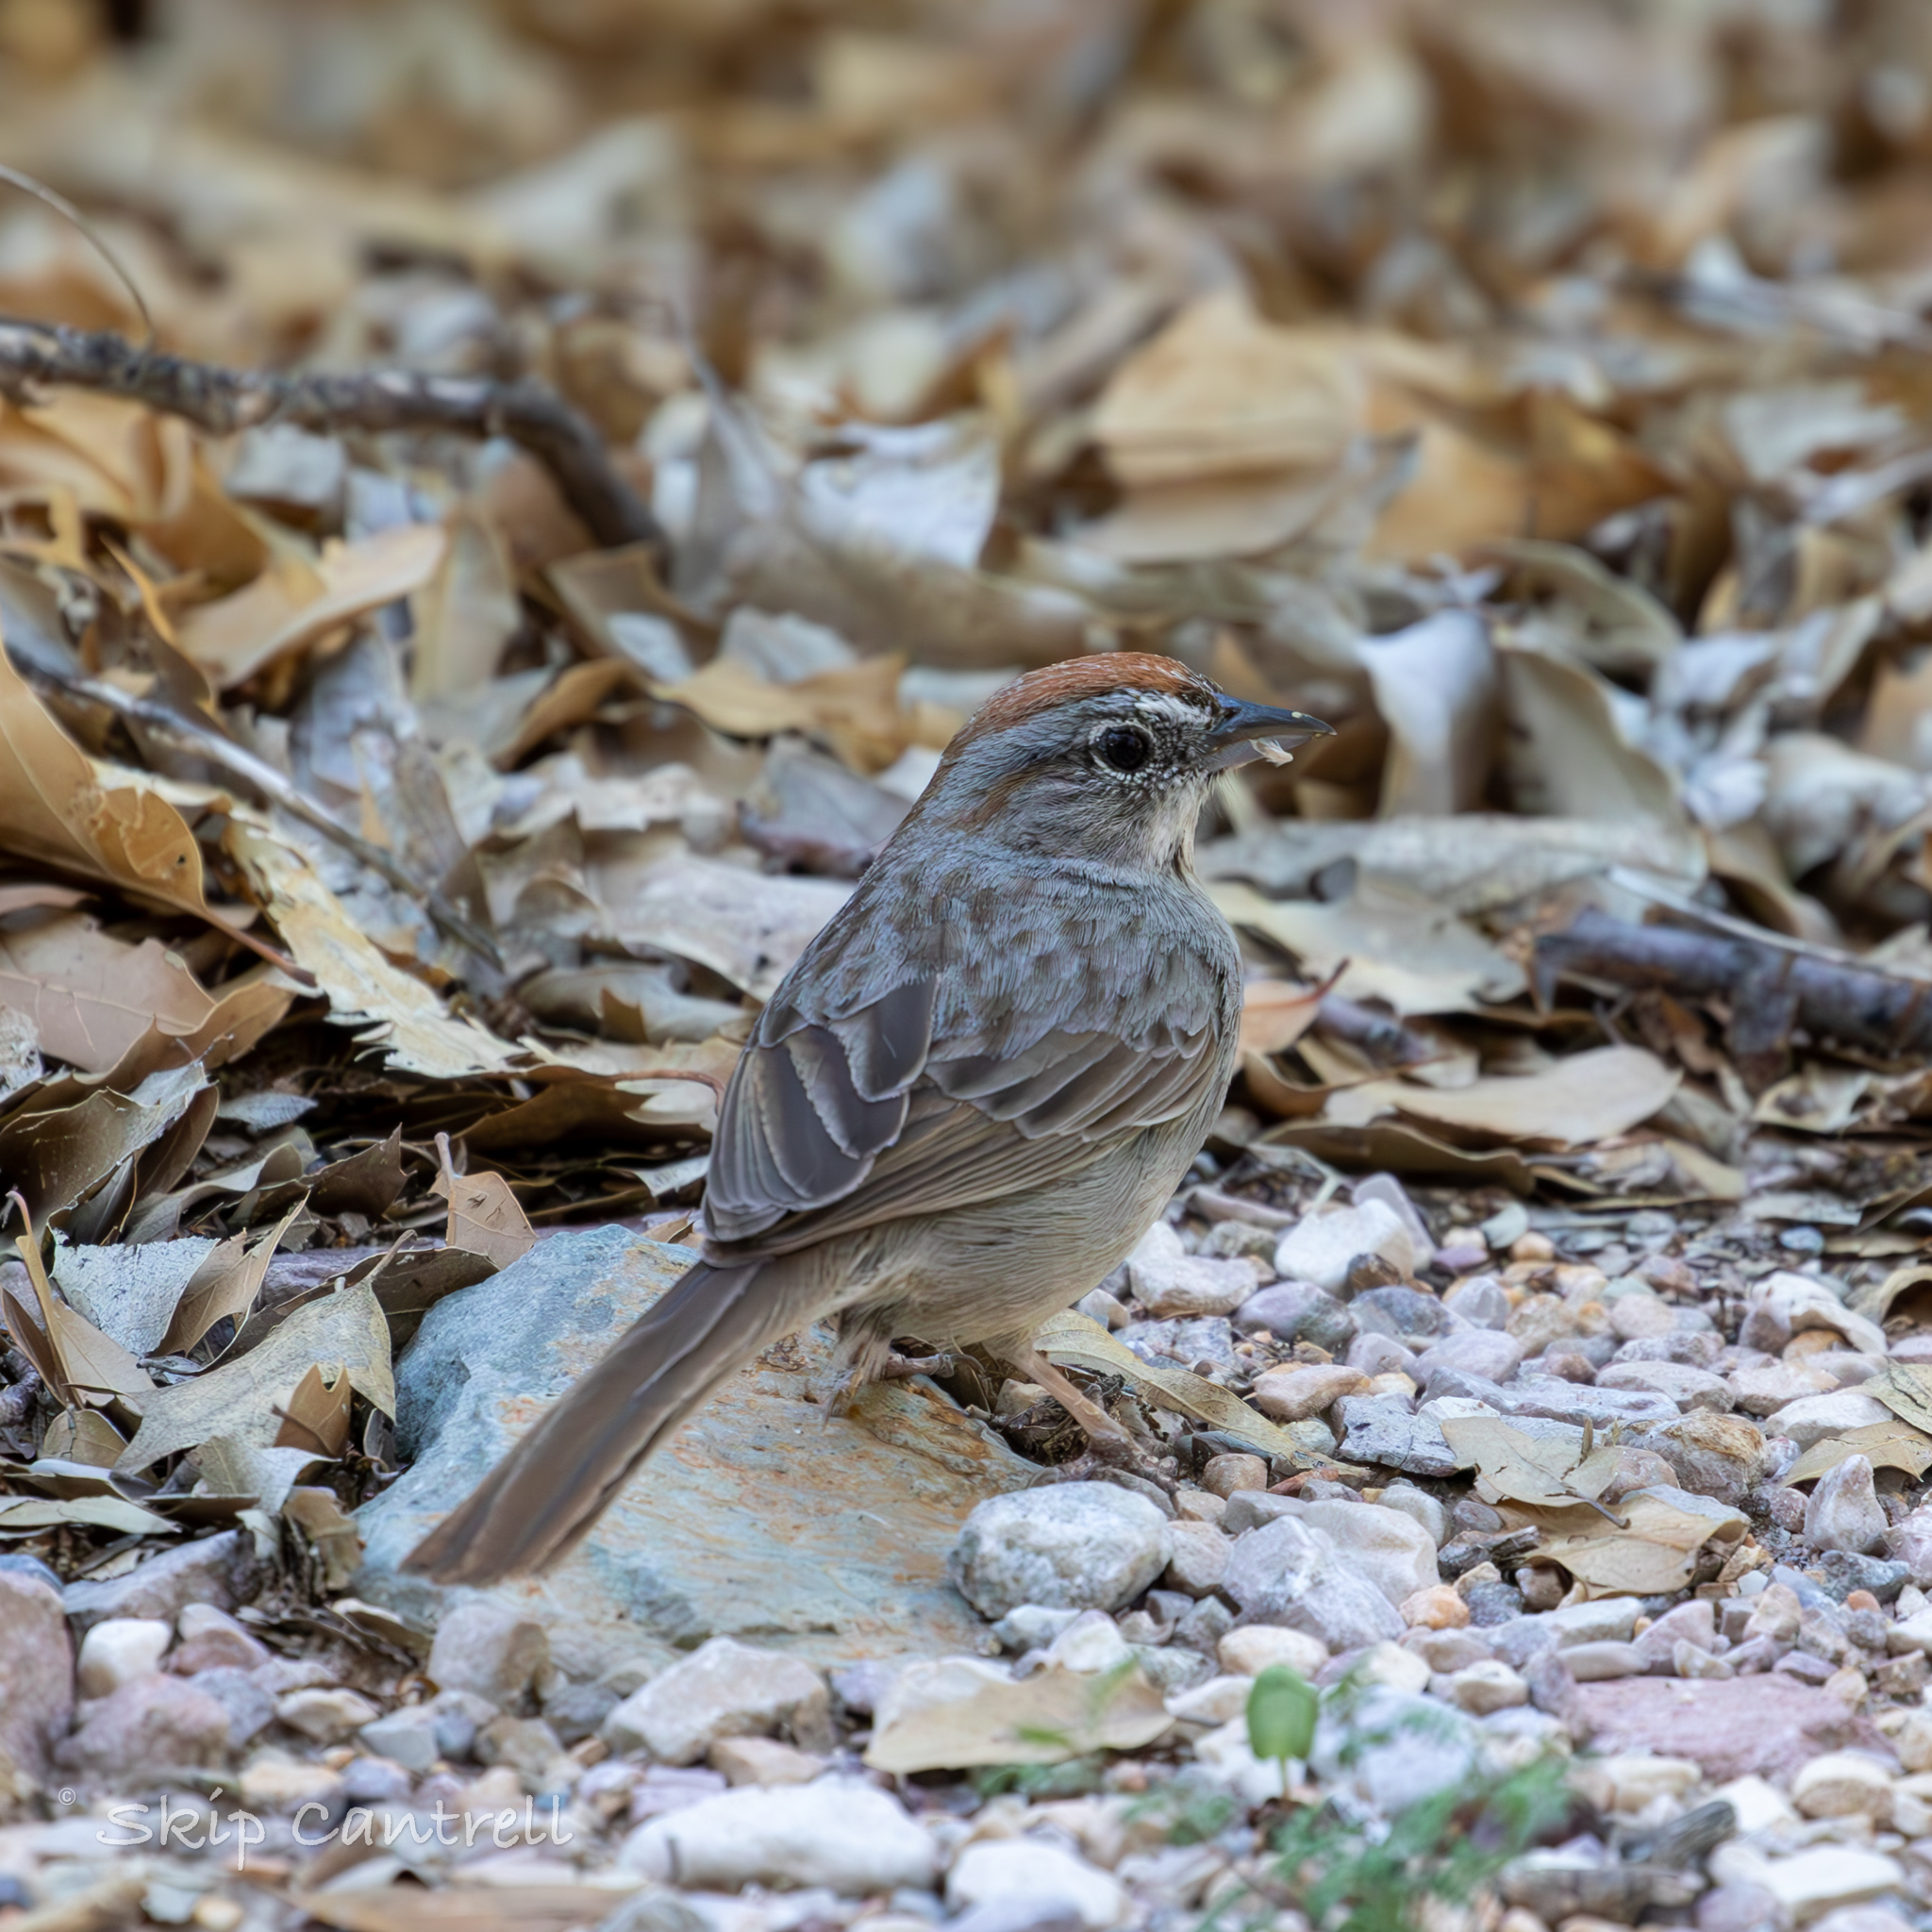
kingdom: Animalia
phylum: Chordata
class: Aves
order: Passeriformes
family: Passerellidae
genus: Aimophila
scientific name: Aimophila ruficeps
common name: Rufous-crowned sparrow
